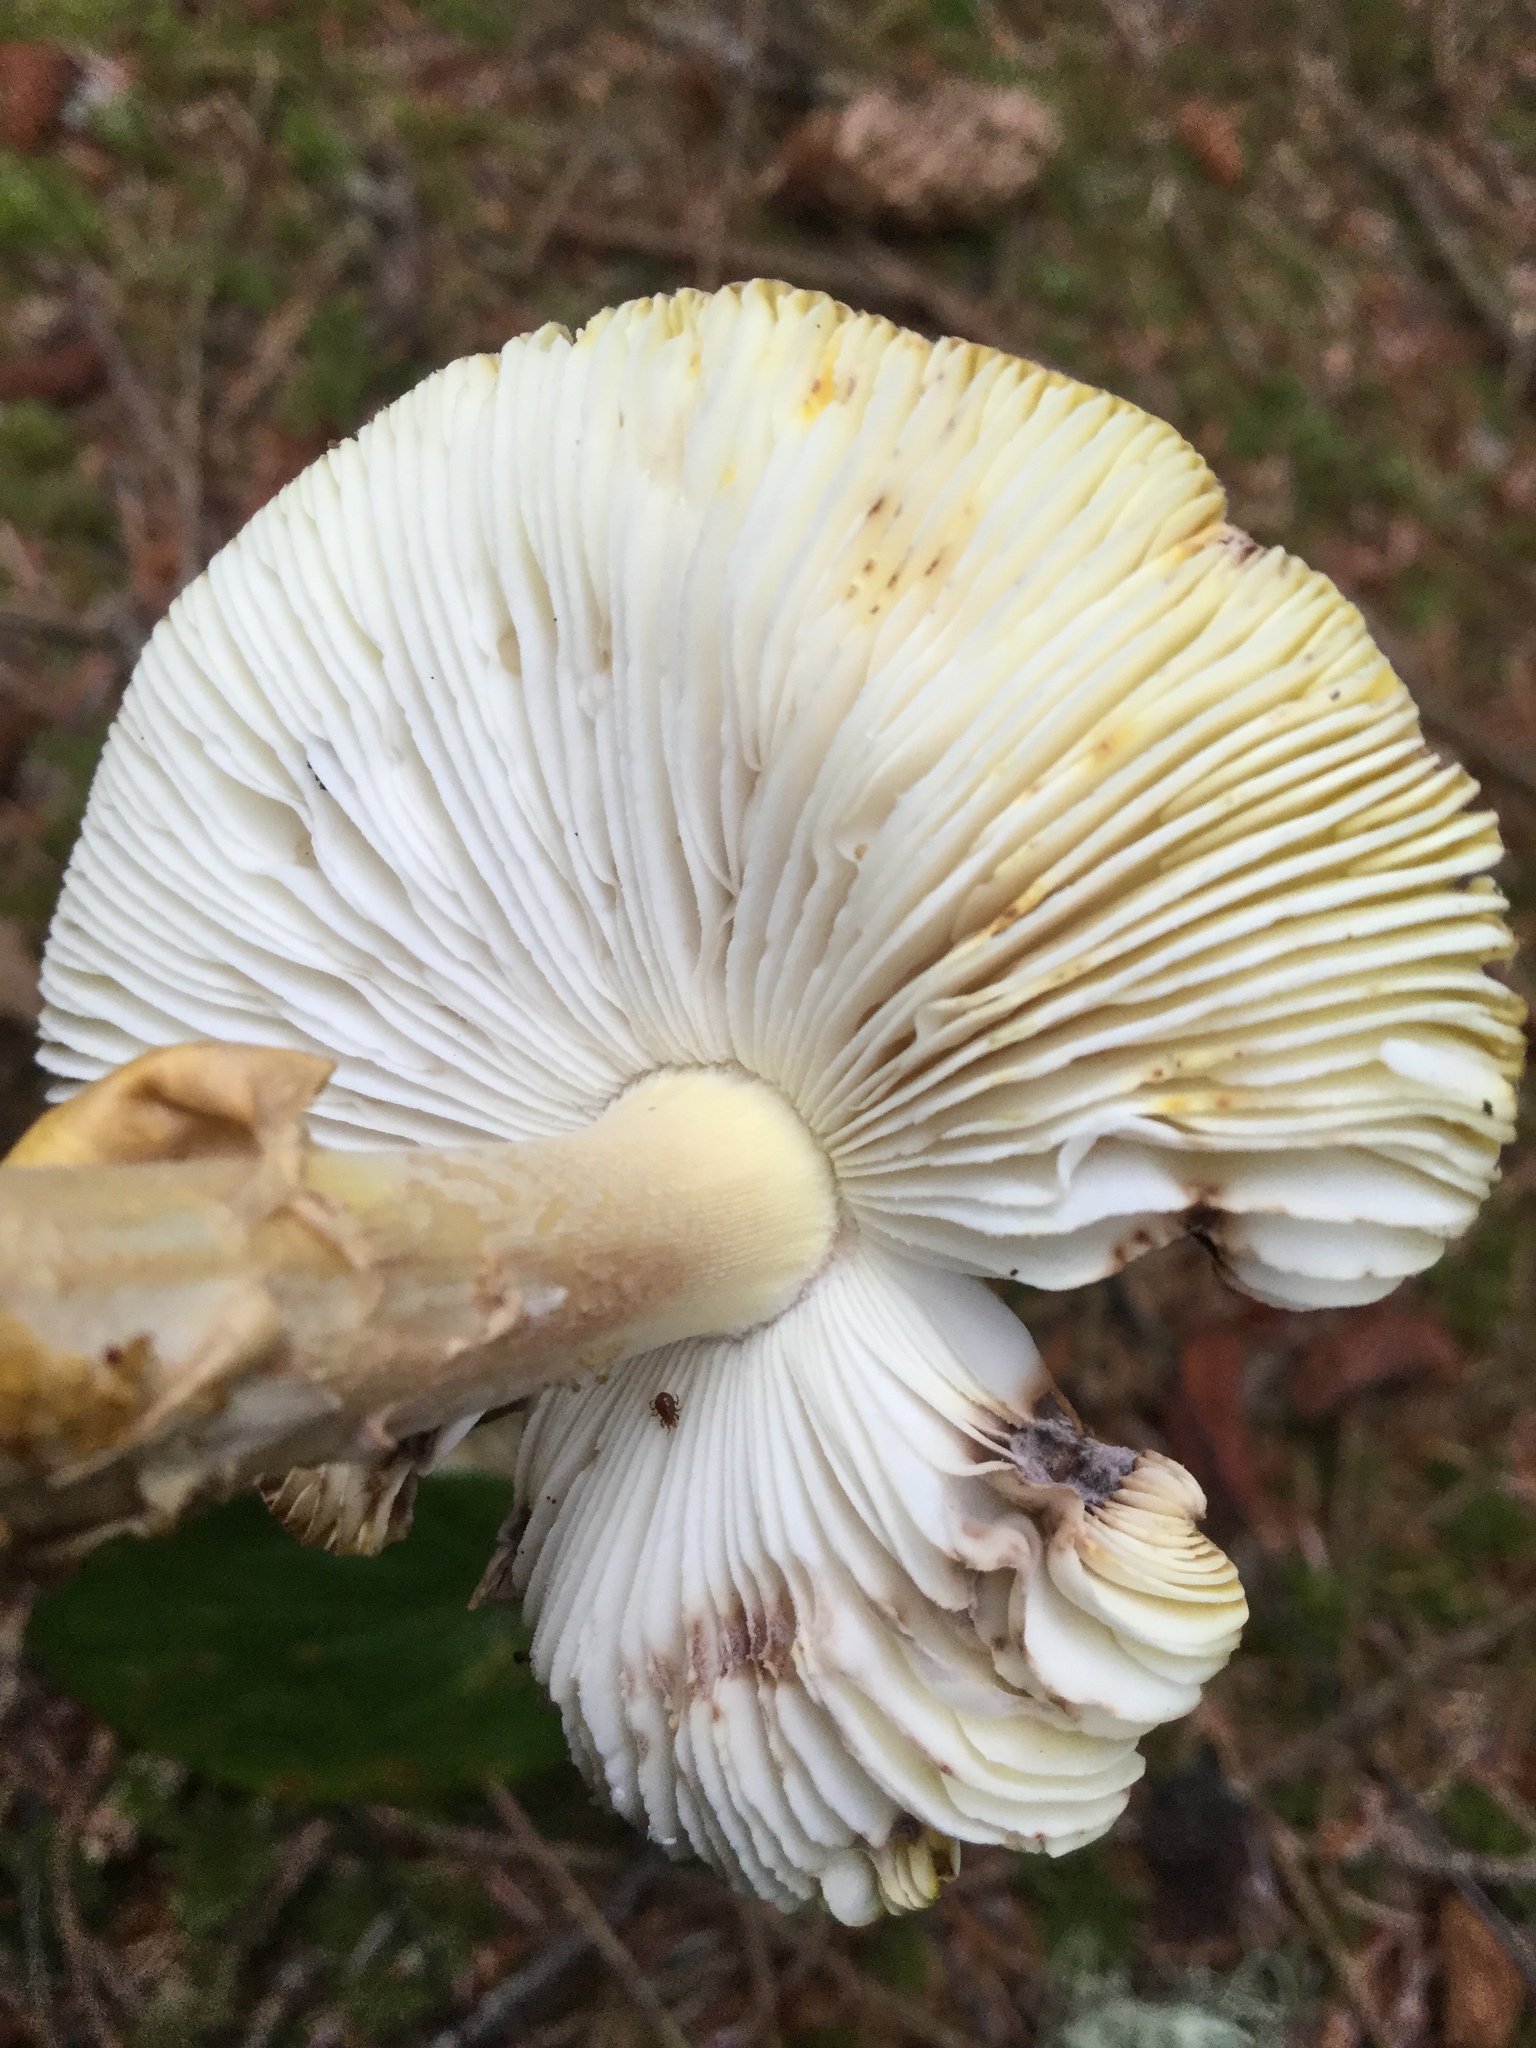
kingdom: Fungi
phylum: Basidiomycota
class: Agaricomycetes
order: Agaricales
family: Amanitaceae
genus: Amanita
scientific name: Amanita augusta
